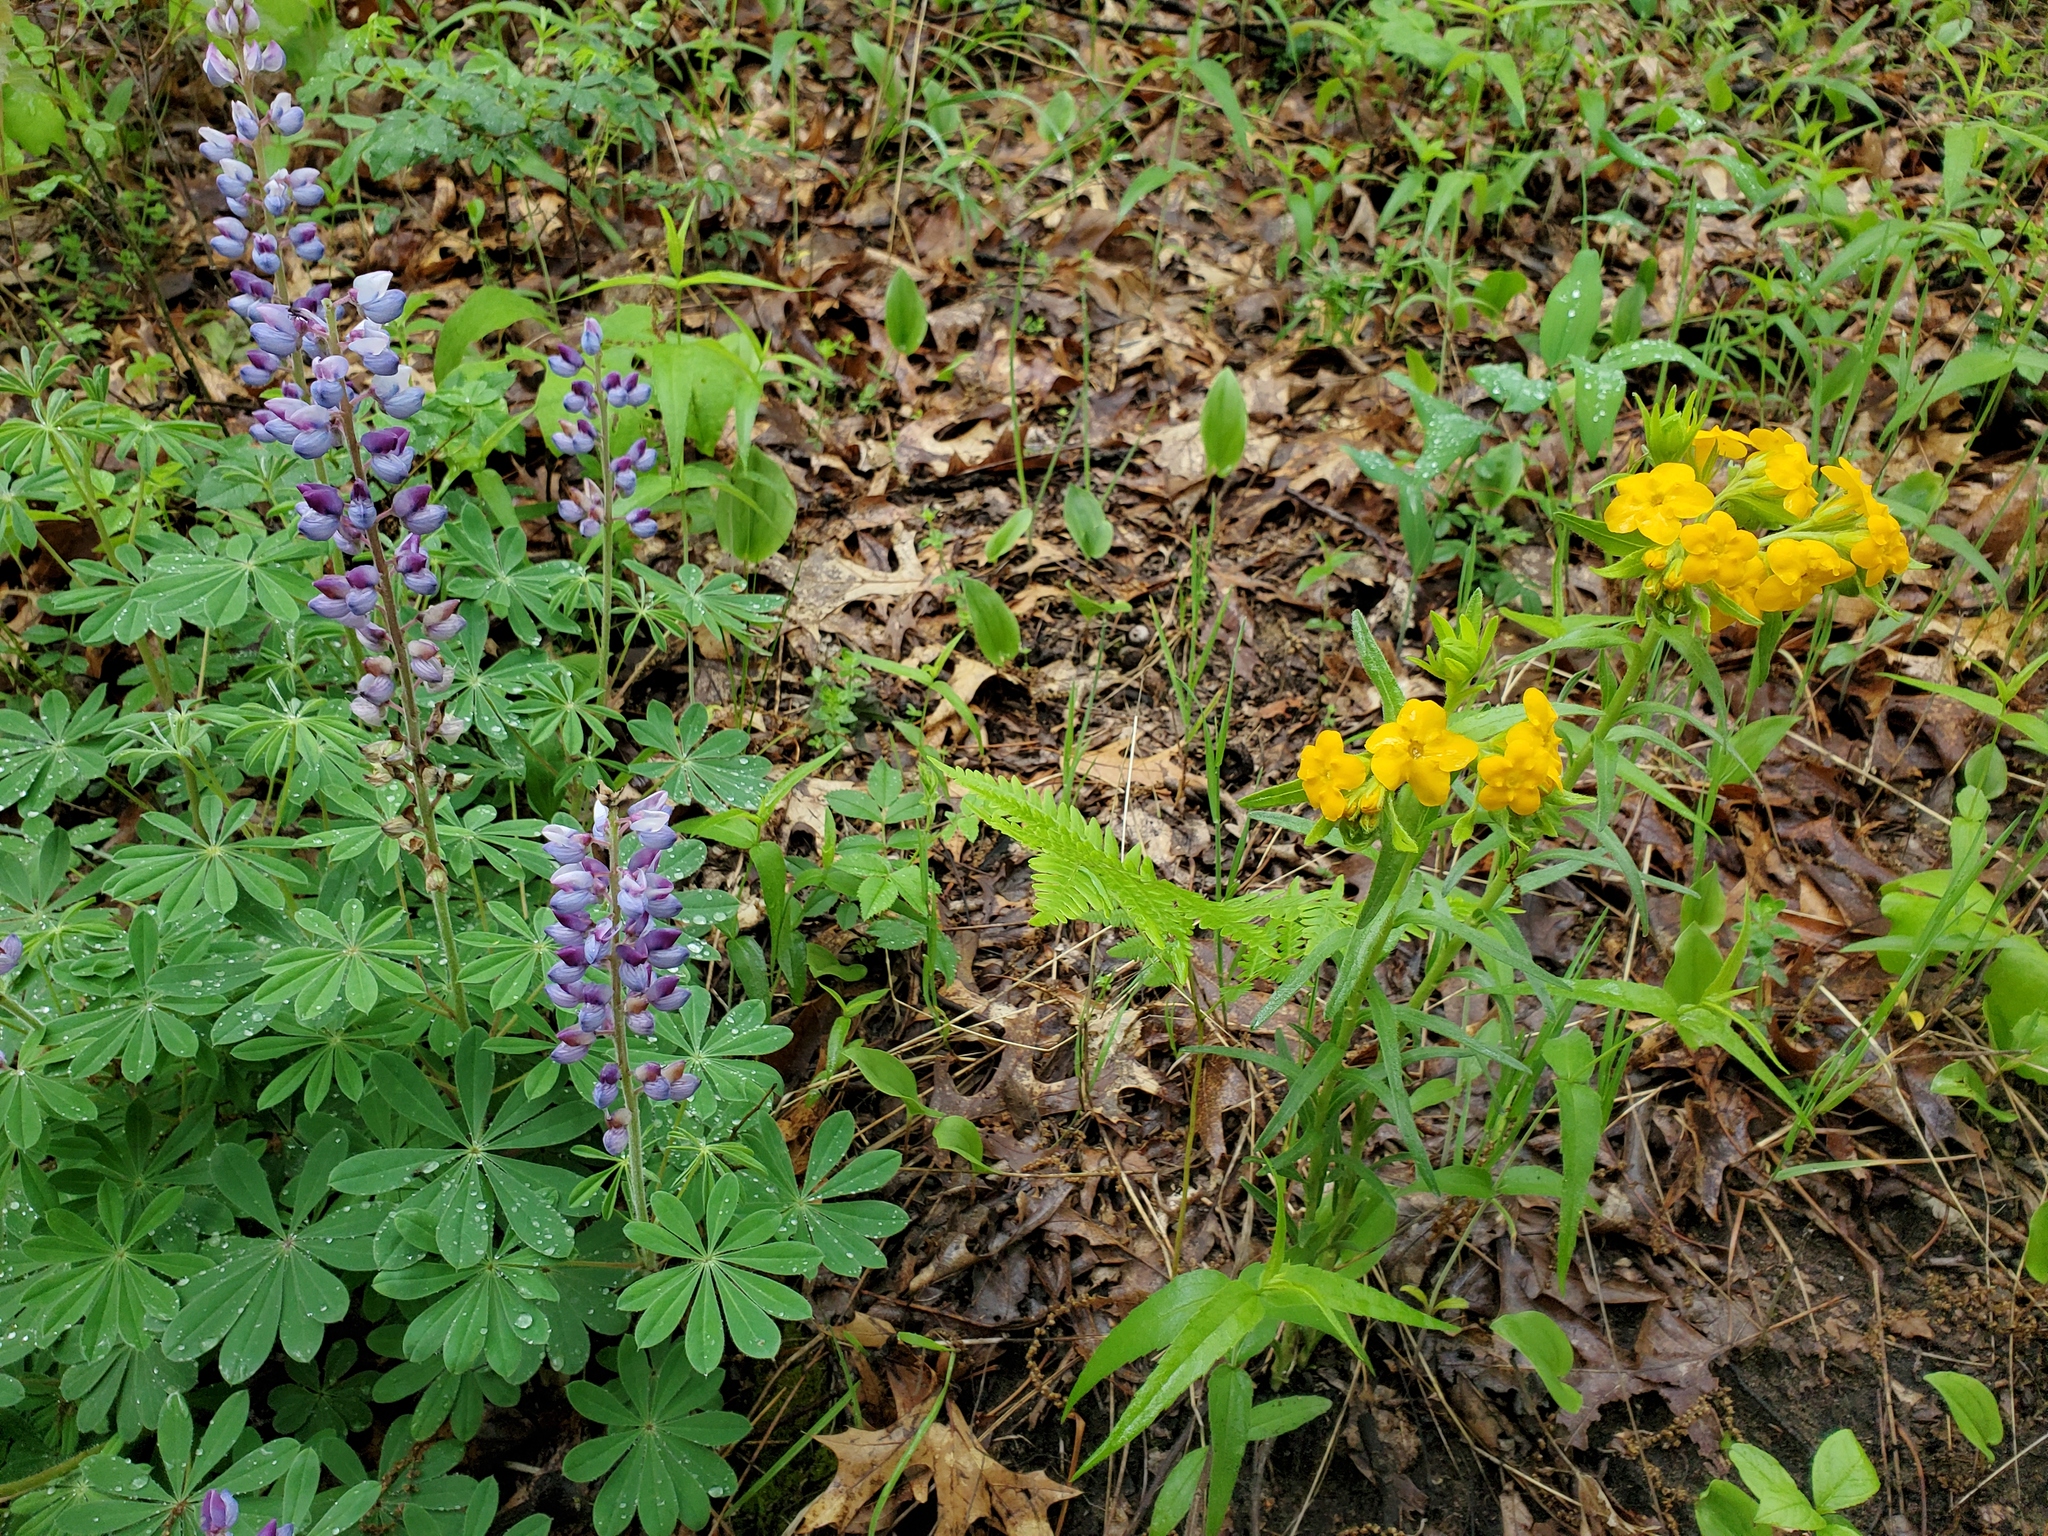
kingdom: Plantae
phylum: Tracheophyta
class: Magnoliopsida
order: Fabales
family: Fabaceae
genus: Lupinus
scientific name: Lupinus perennis
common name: Sundial lupine
